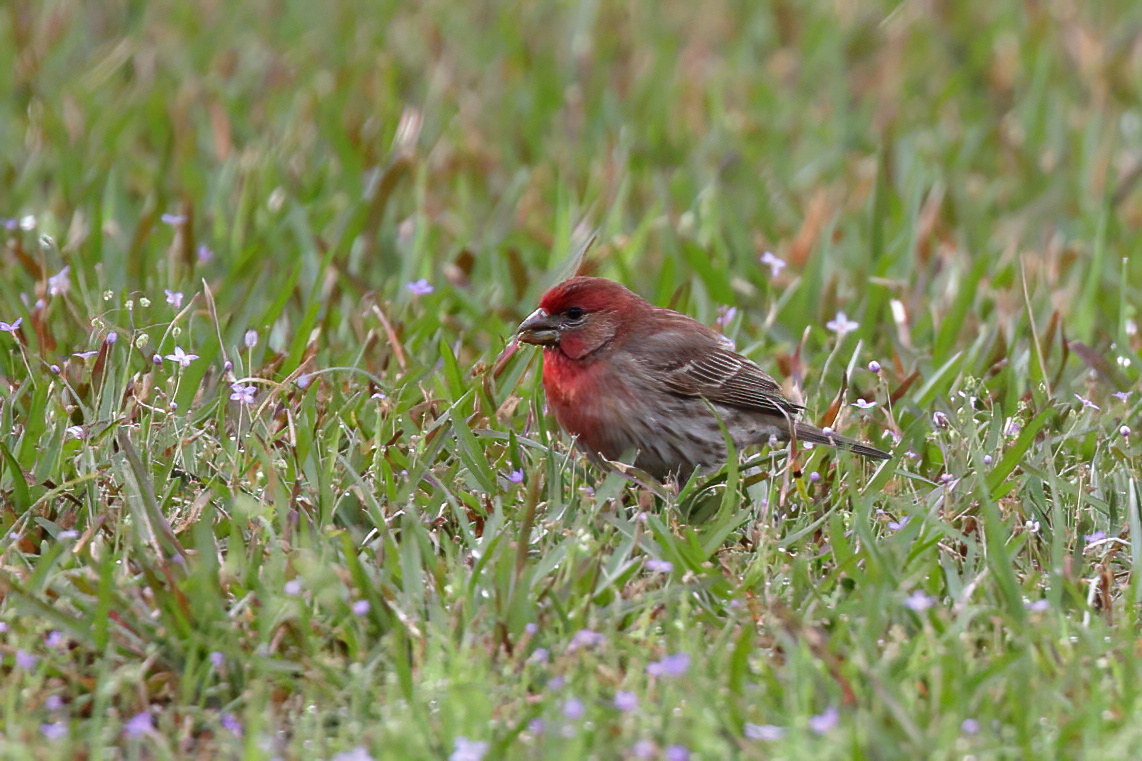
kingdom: Animalia
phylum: Chordata
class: Aves
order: Passeriformes
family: Fringillidae
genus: Haemorhous
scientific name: Haemorhous mexicanus
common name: House finch
